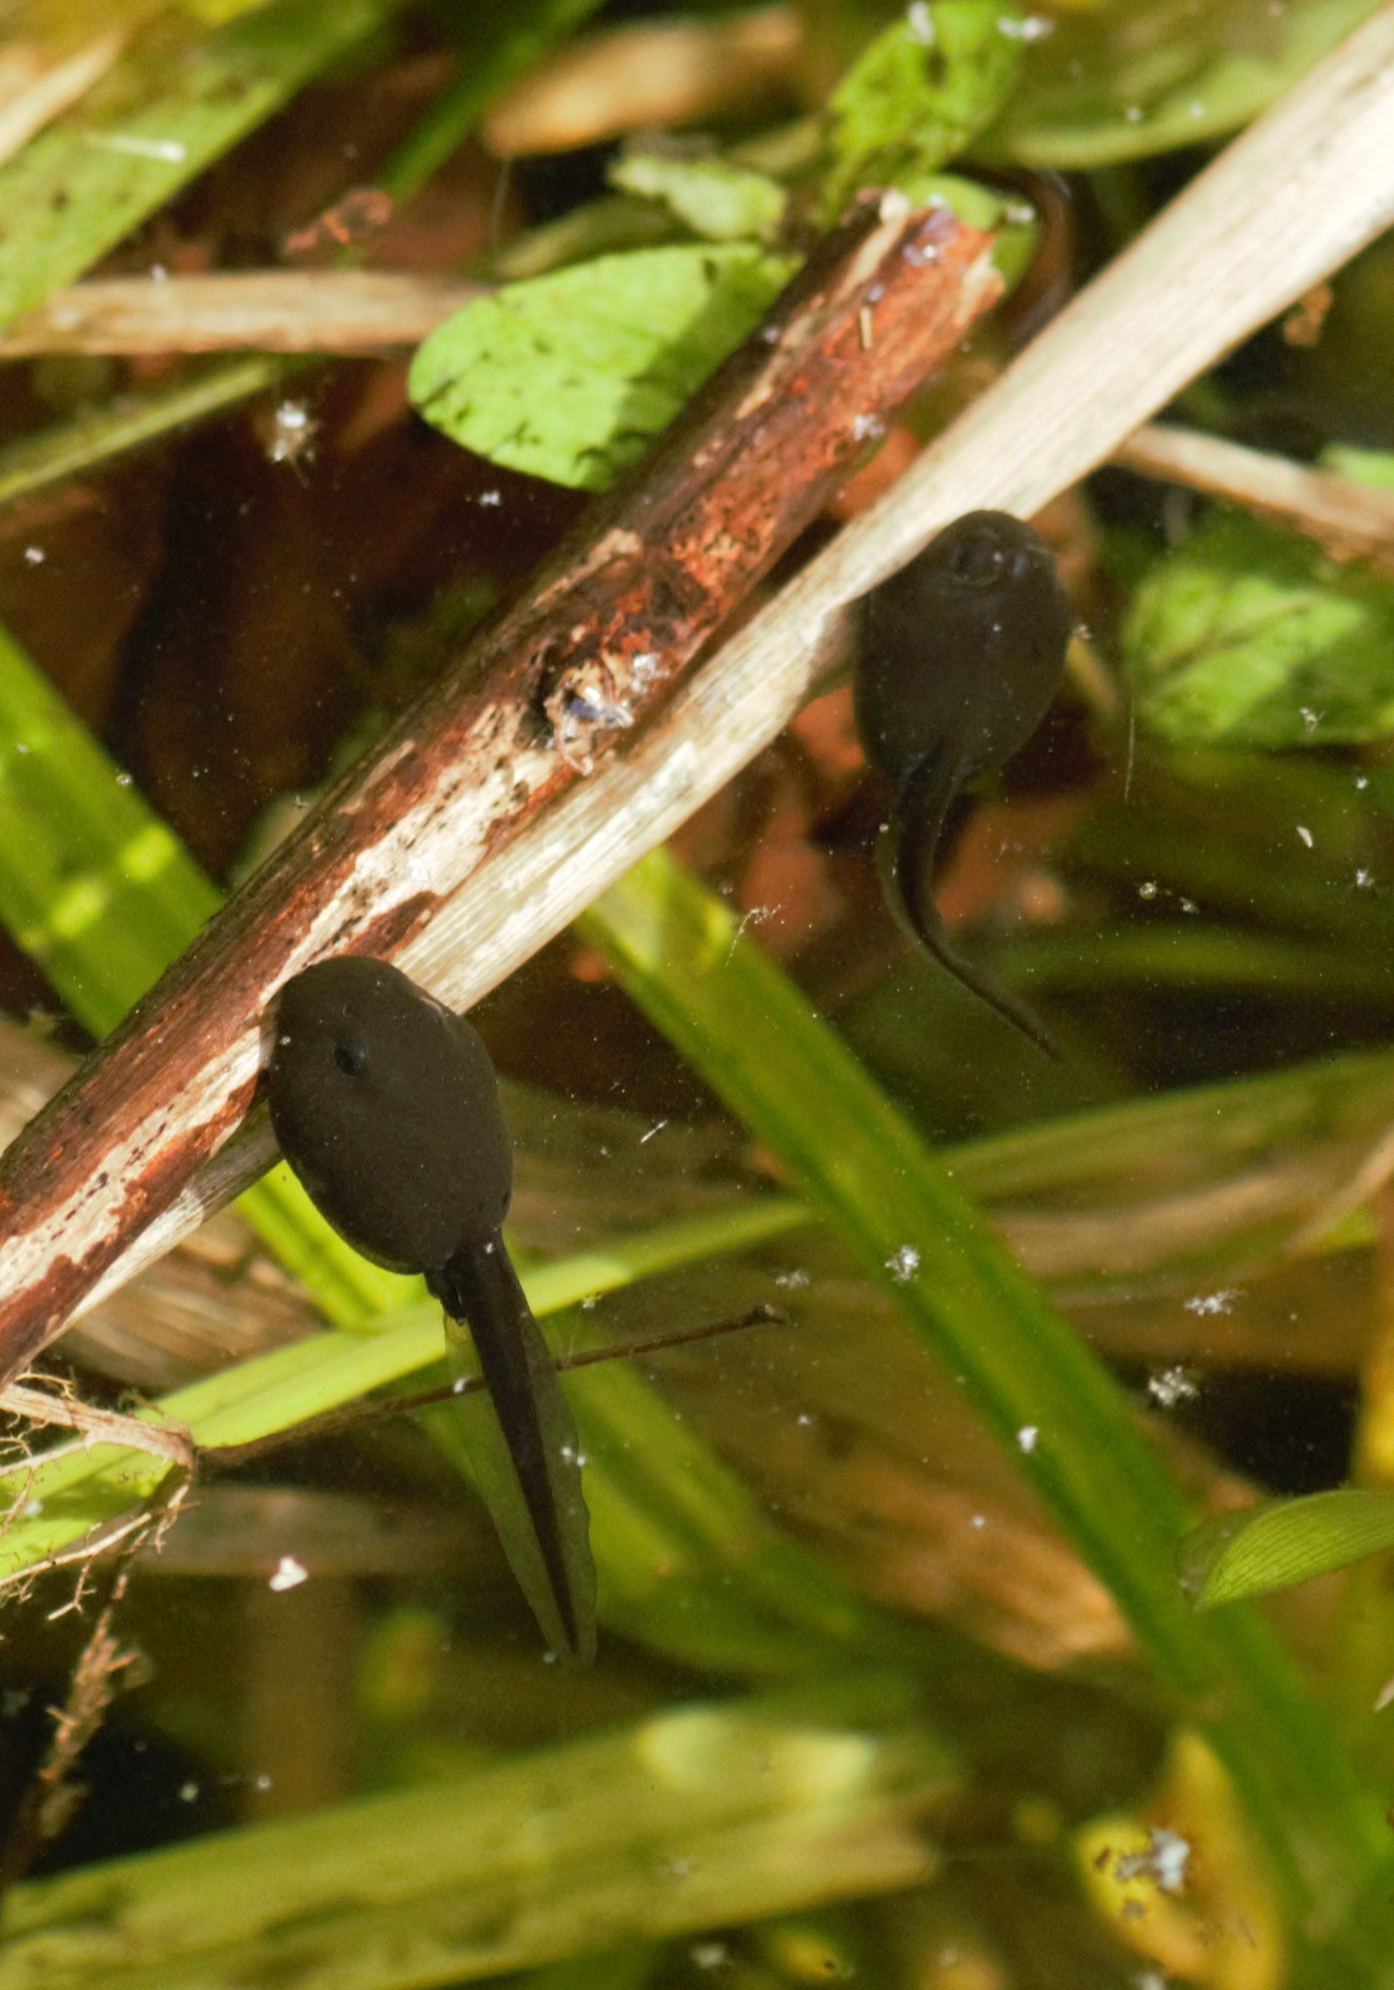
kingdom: Animalia
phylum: Chordata
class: Amphibia
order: Anura
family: Bufonidae
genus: Bufo
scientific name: Bufo bufo
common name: Common toad
